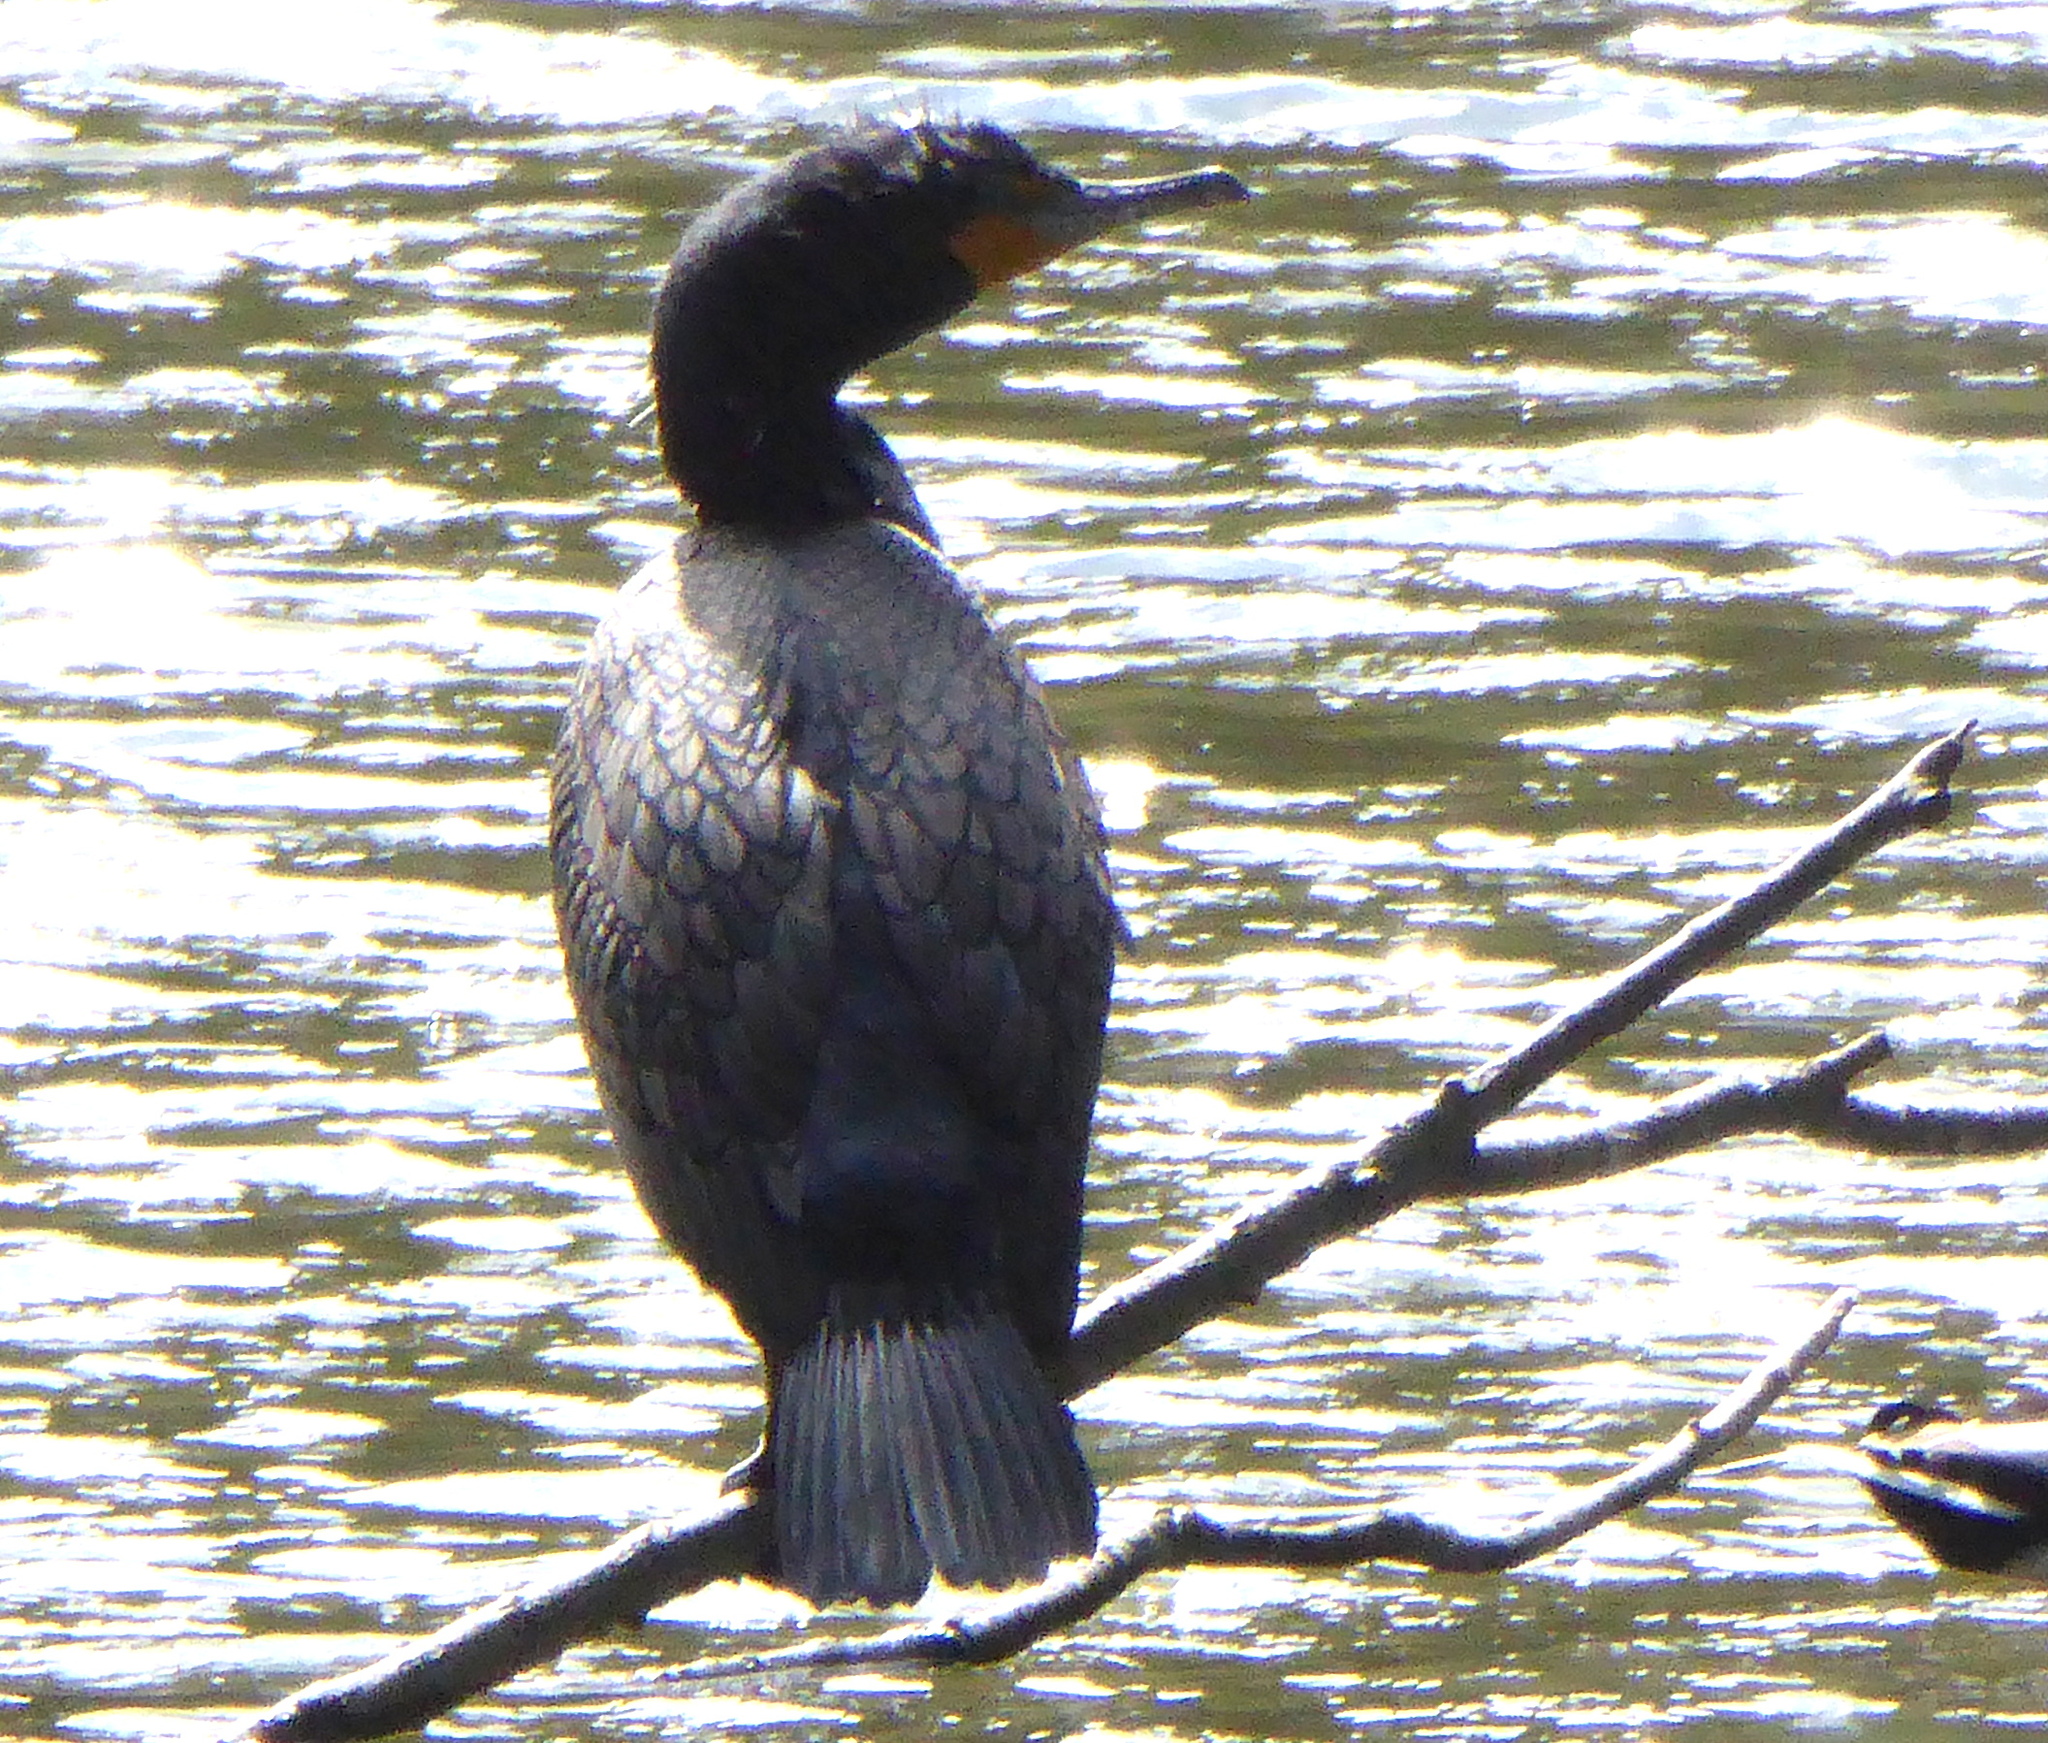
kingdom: Animalia
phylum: Chordata
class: Aves
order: Suliformes
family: Phalacrocoracidae
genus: Phalacrocorax
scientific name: Phalacrocorax auritus
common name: Double-crested cormorant
